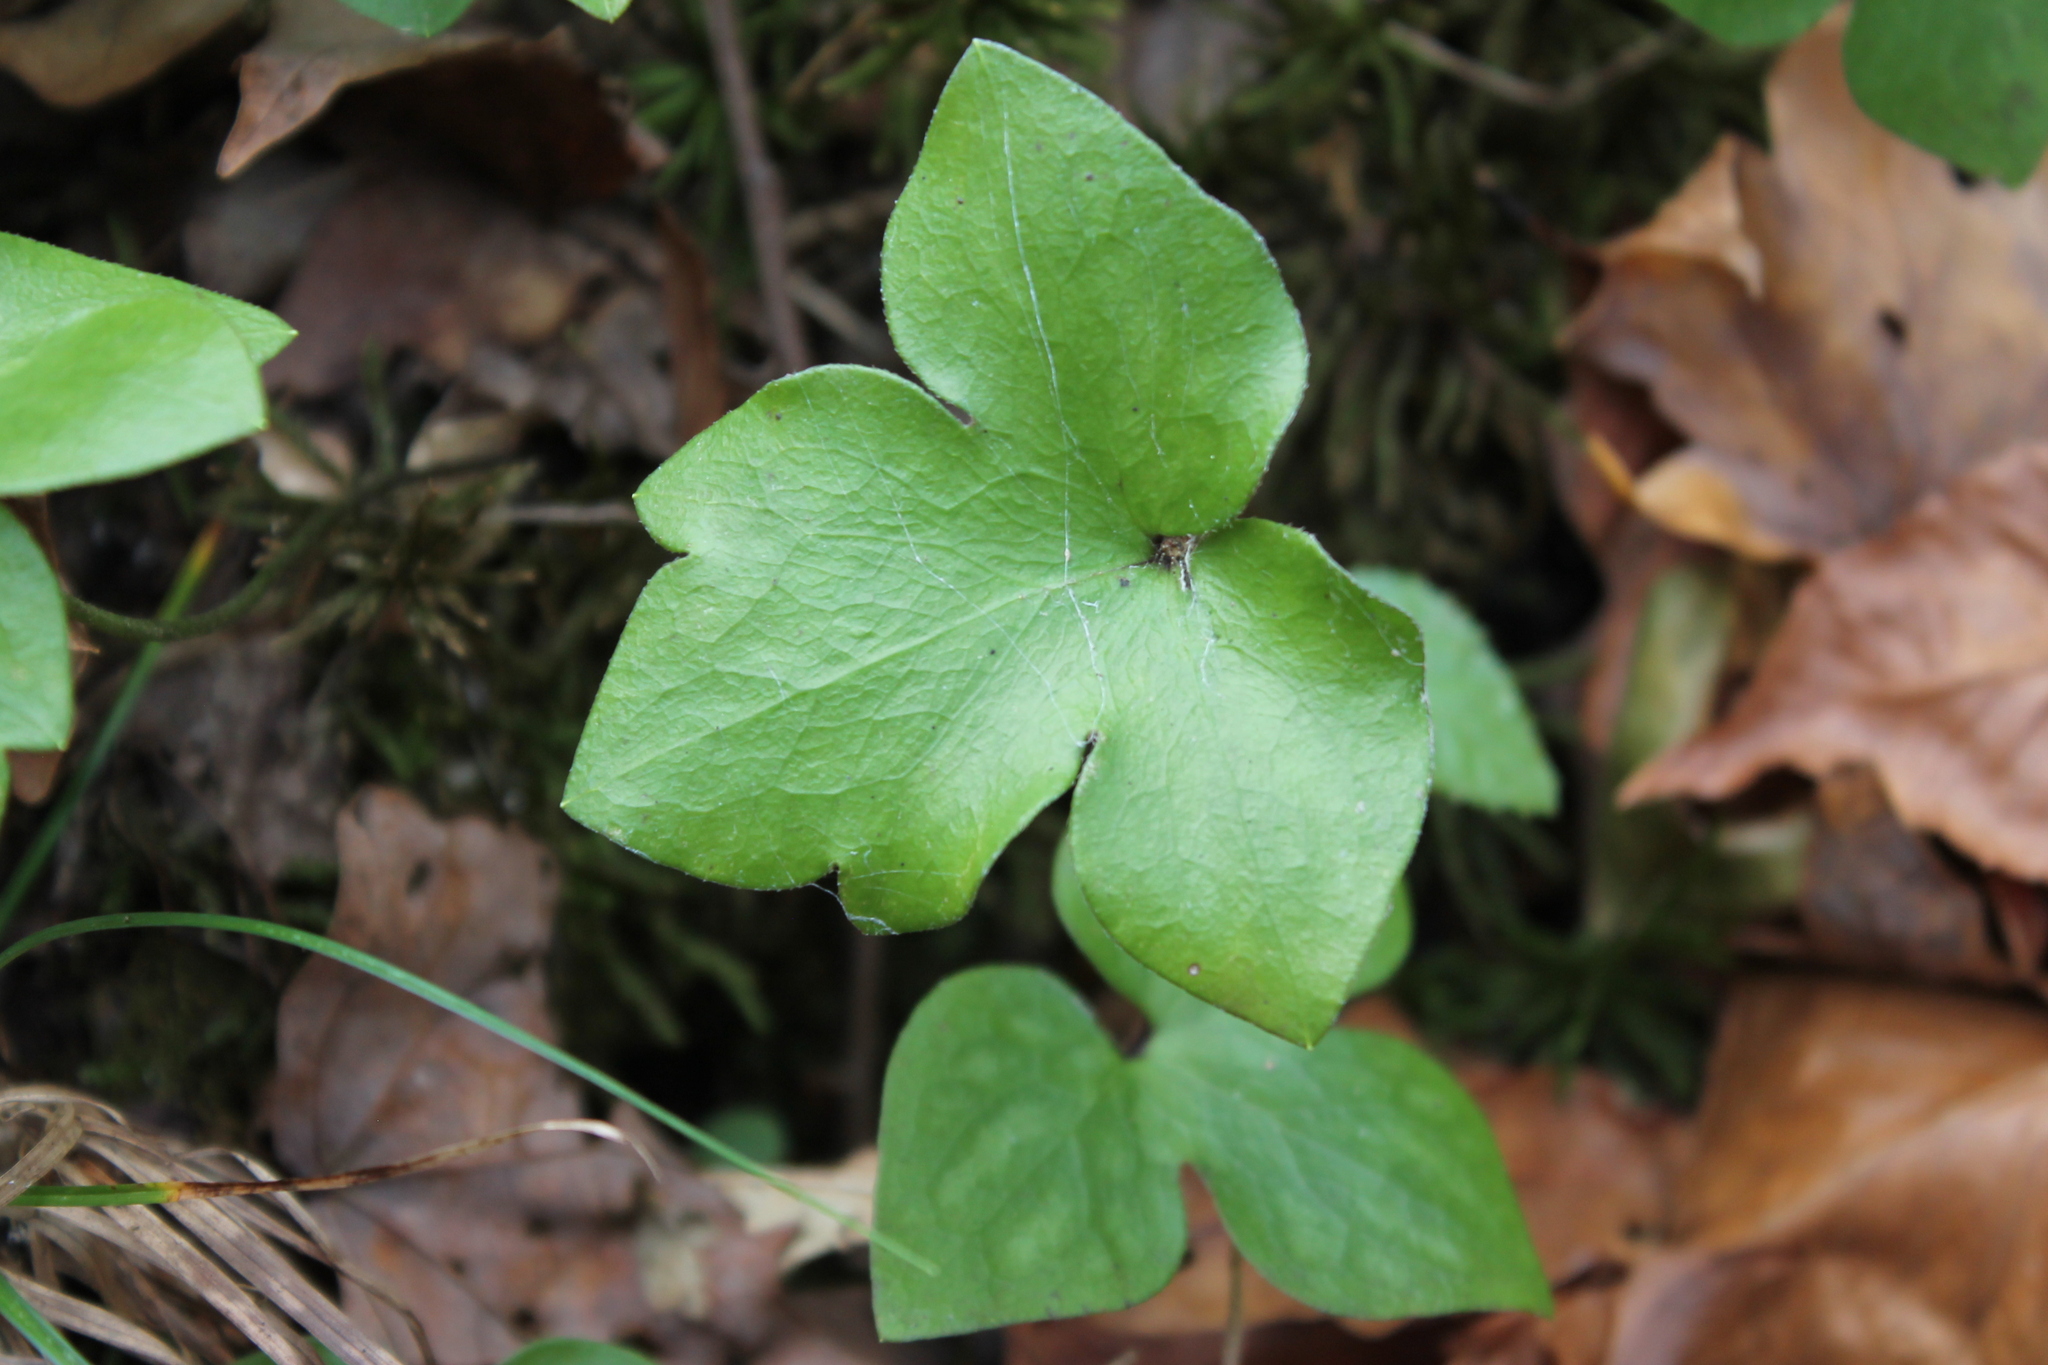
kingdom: Plantae
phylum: Tracheophyta
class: Magnoliopsida
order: Ranunculales
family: Ranunculaceae
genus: Hepatica
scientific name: Hepatica acutiloba
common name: Sharp-lobed hepatica
